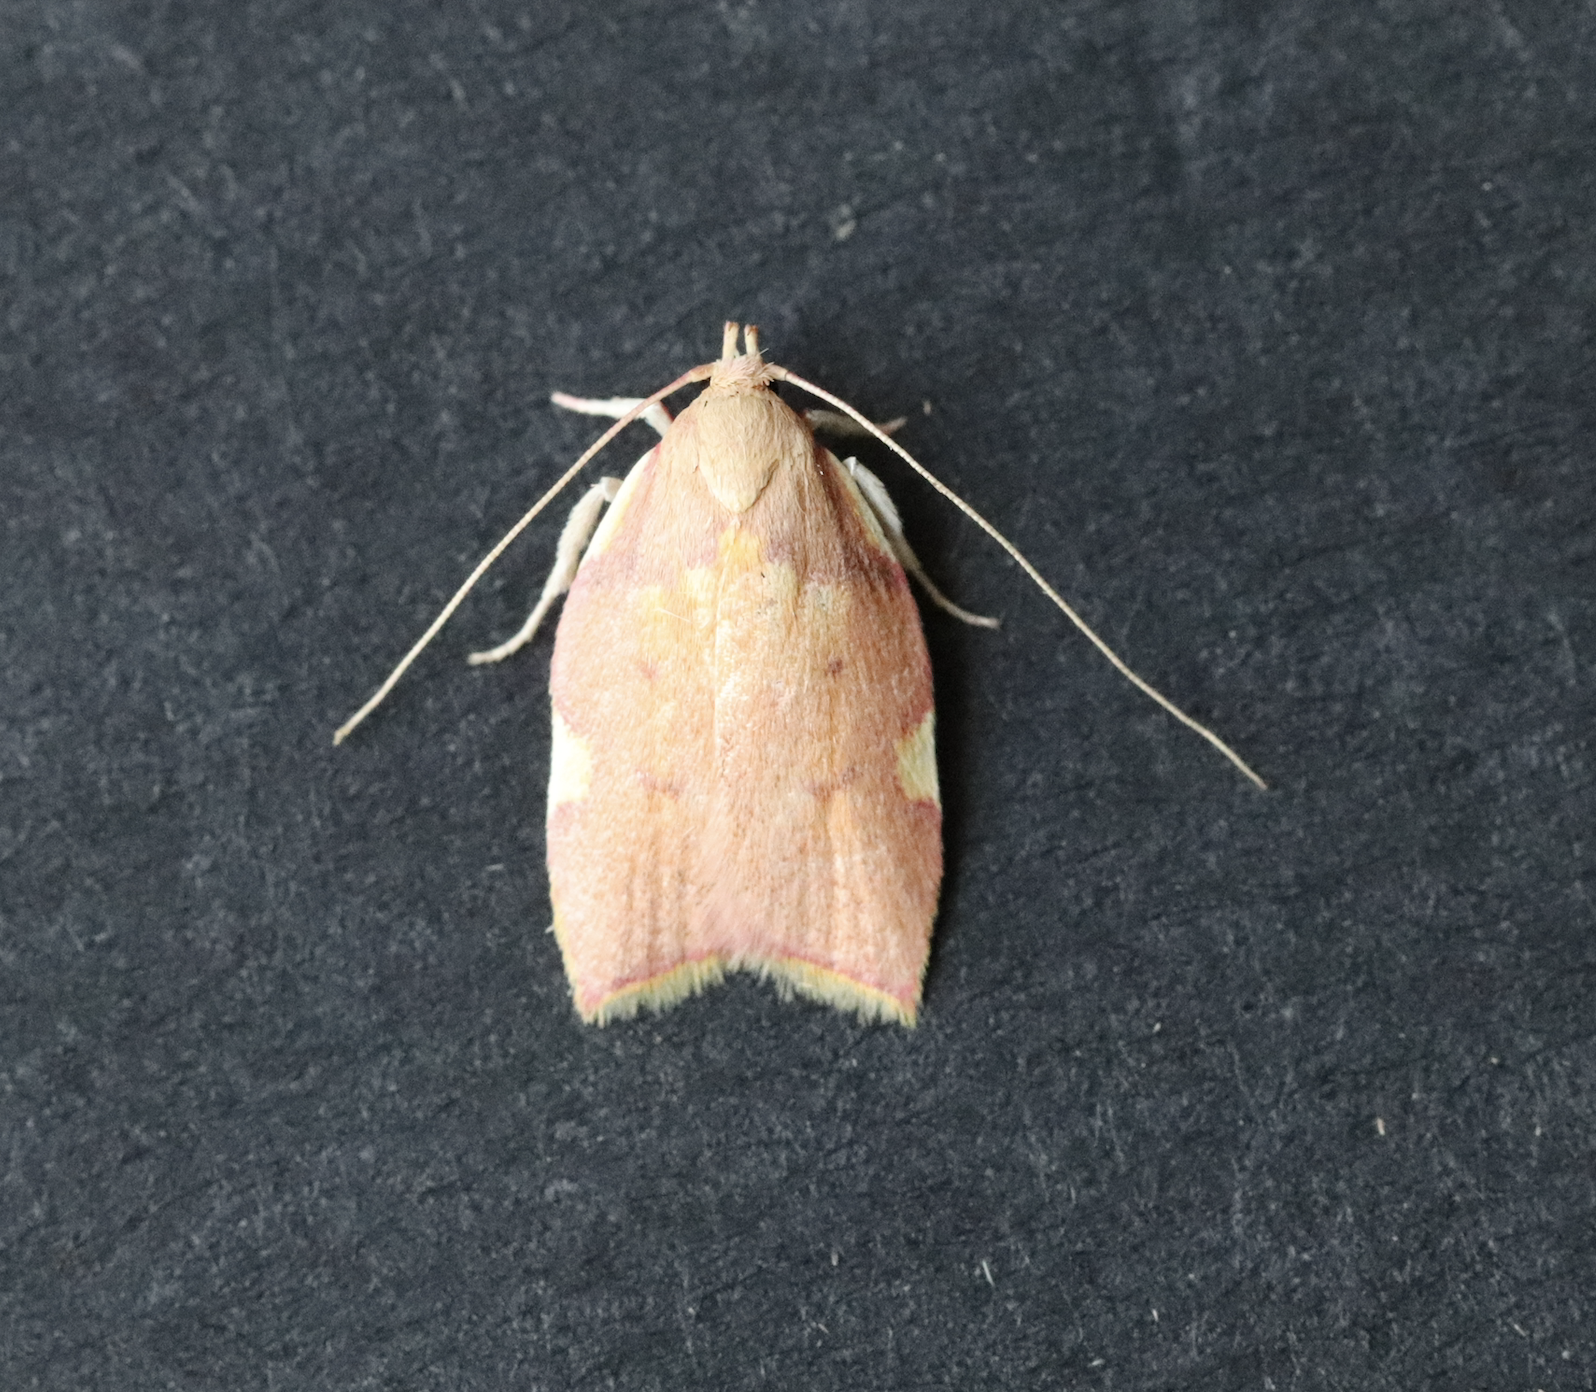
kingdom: Animalia
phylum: Arthropoda
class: Insecta
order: Lepidoptera
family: Peleopodidae
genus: Carcina
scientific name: Carcina quercana
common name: Moth
